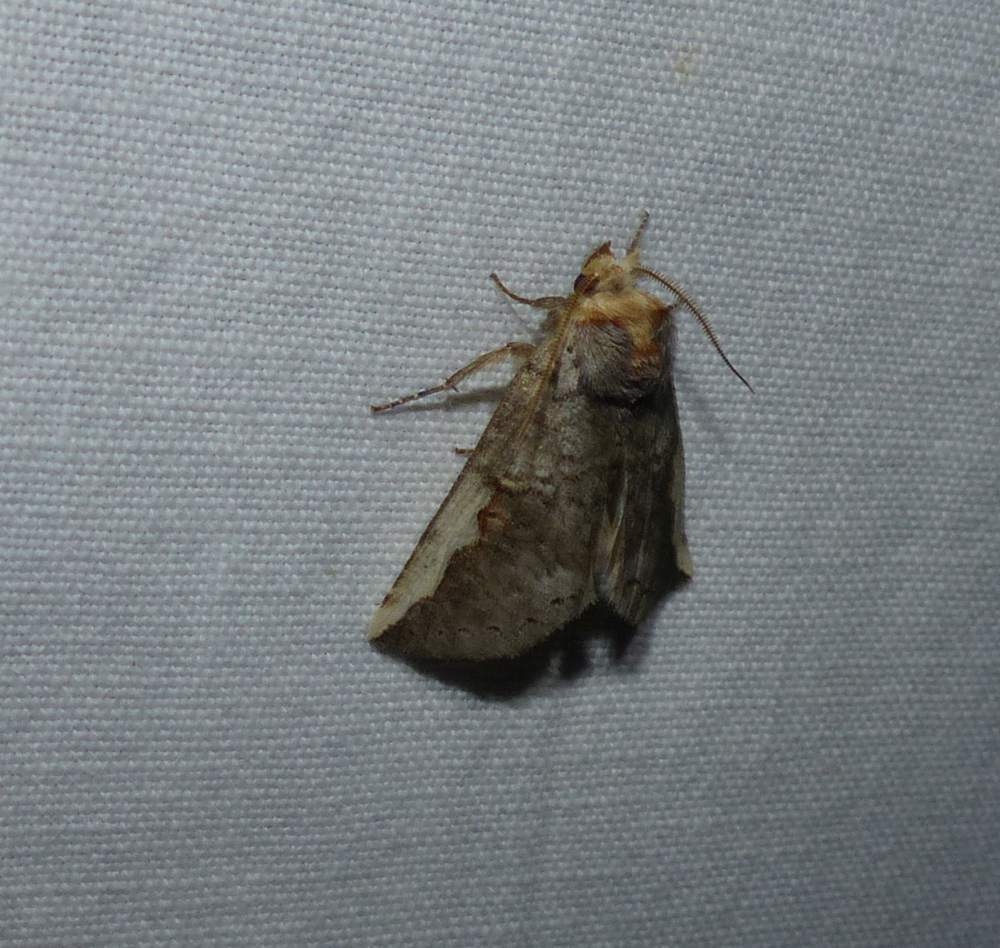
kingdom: Animalia
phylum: Arthropoda
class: Insecta
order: Lepidoptera
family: Notodontidae
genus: Symmerista
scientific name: Symmerista
